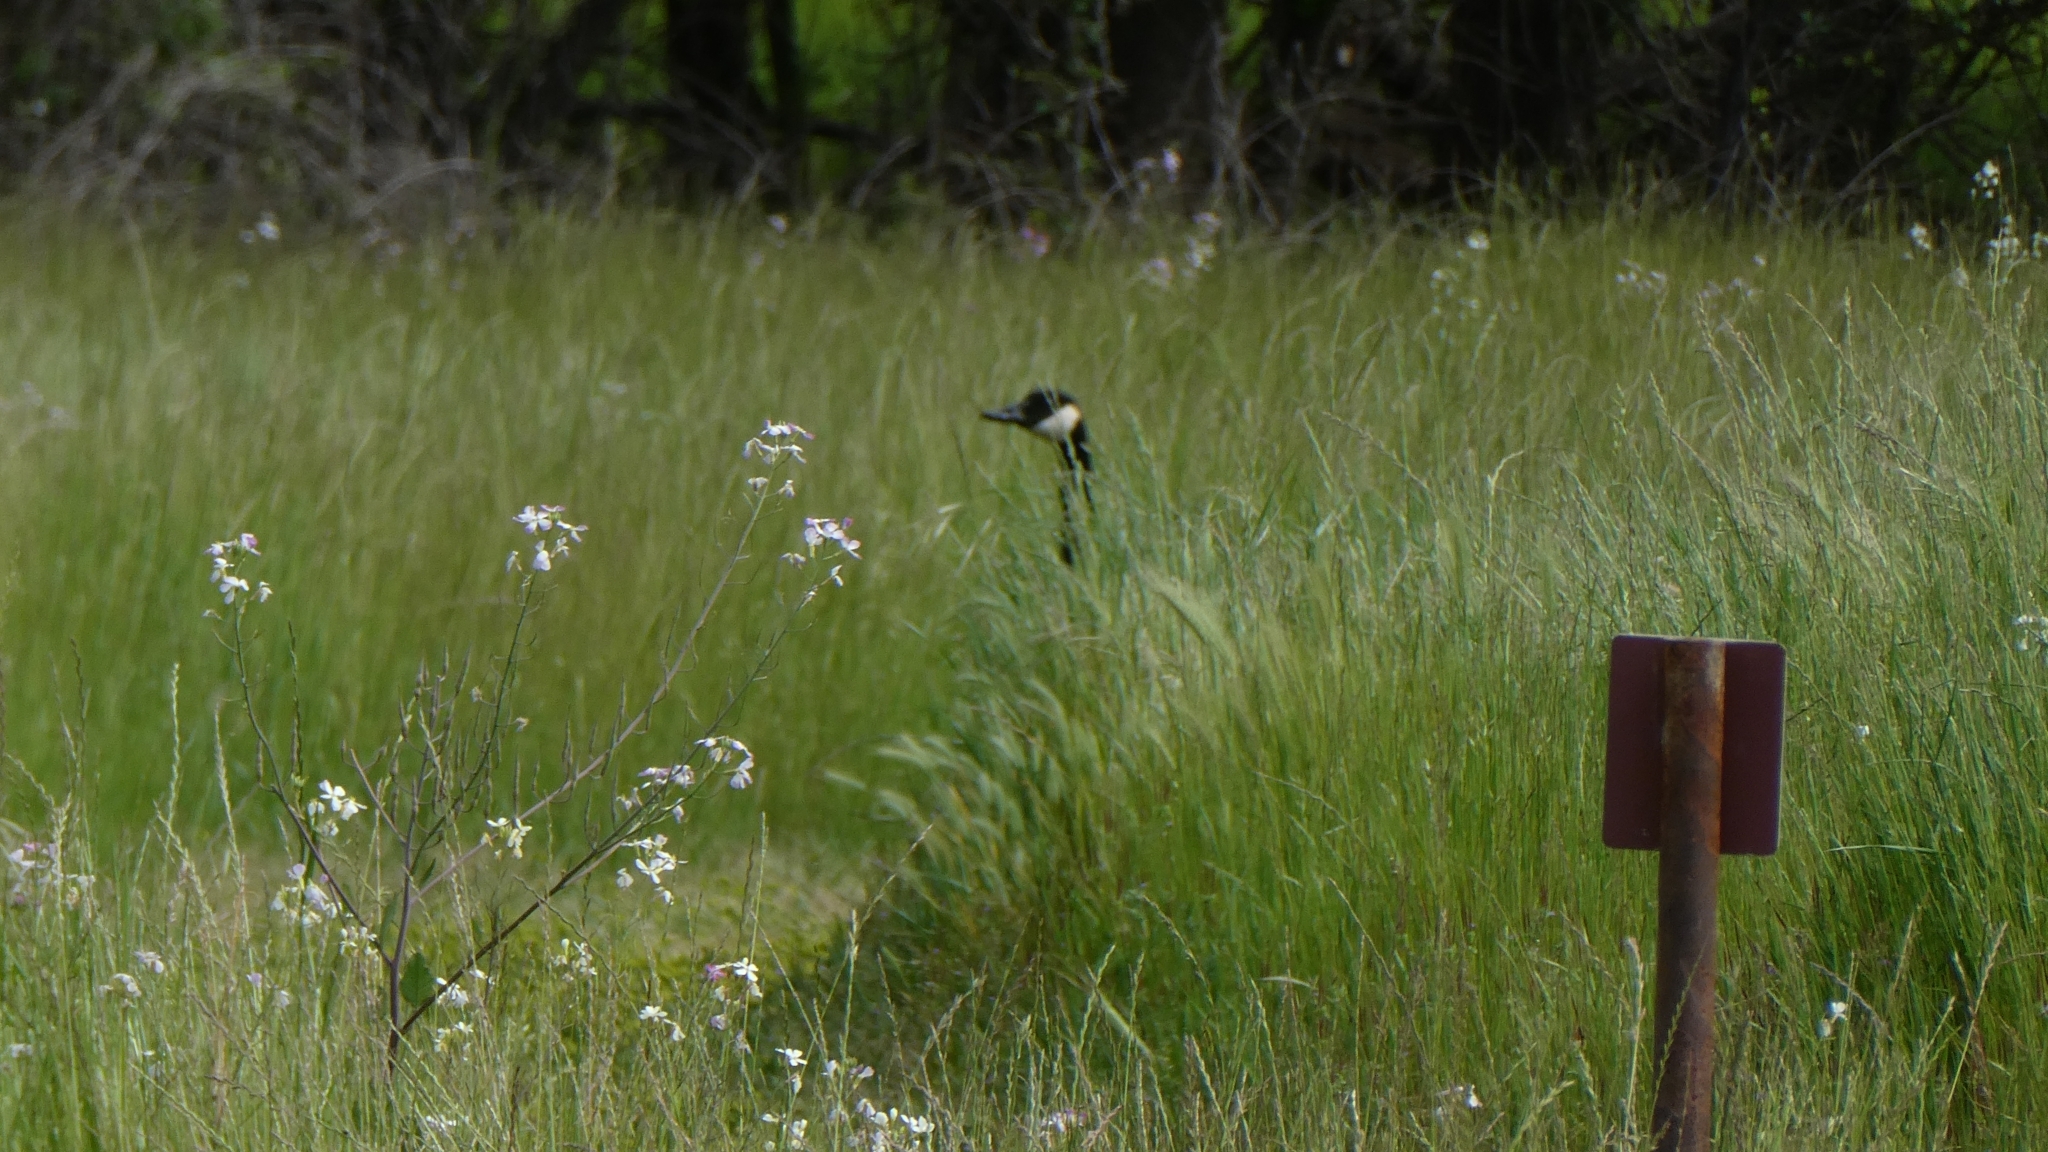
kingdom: Animalia
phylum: Chordata
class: Aves
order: Anseriformes
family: Anatidae
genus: Branta
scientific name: Branta canadensis
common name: Canada goose
